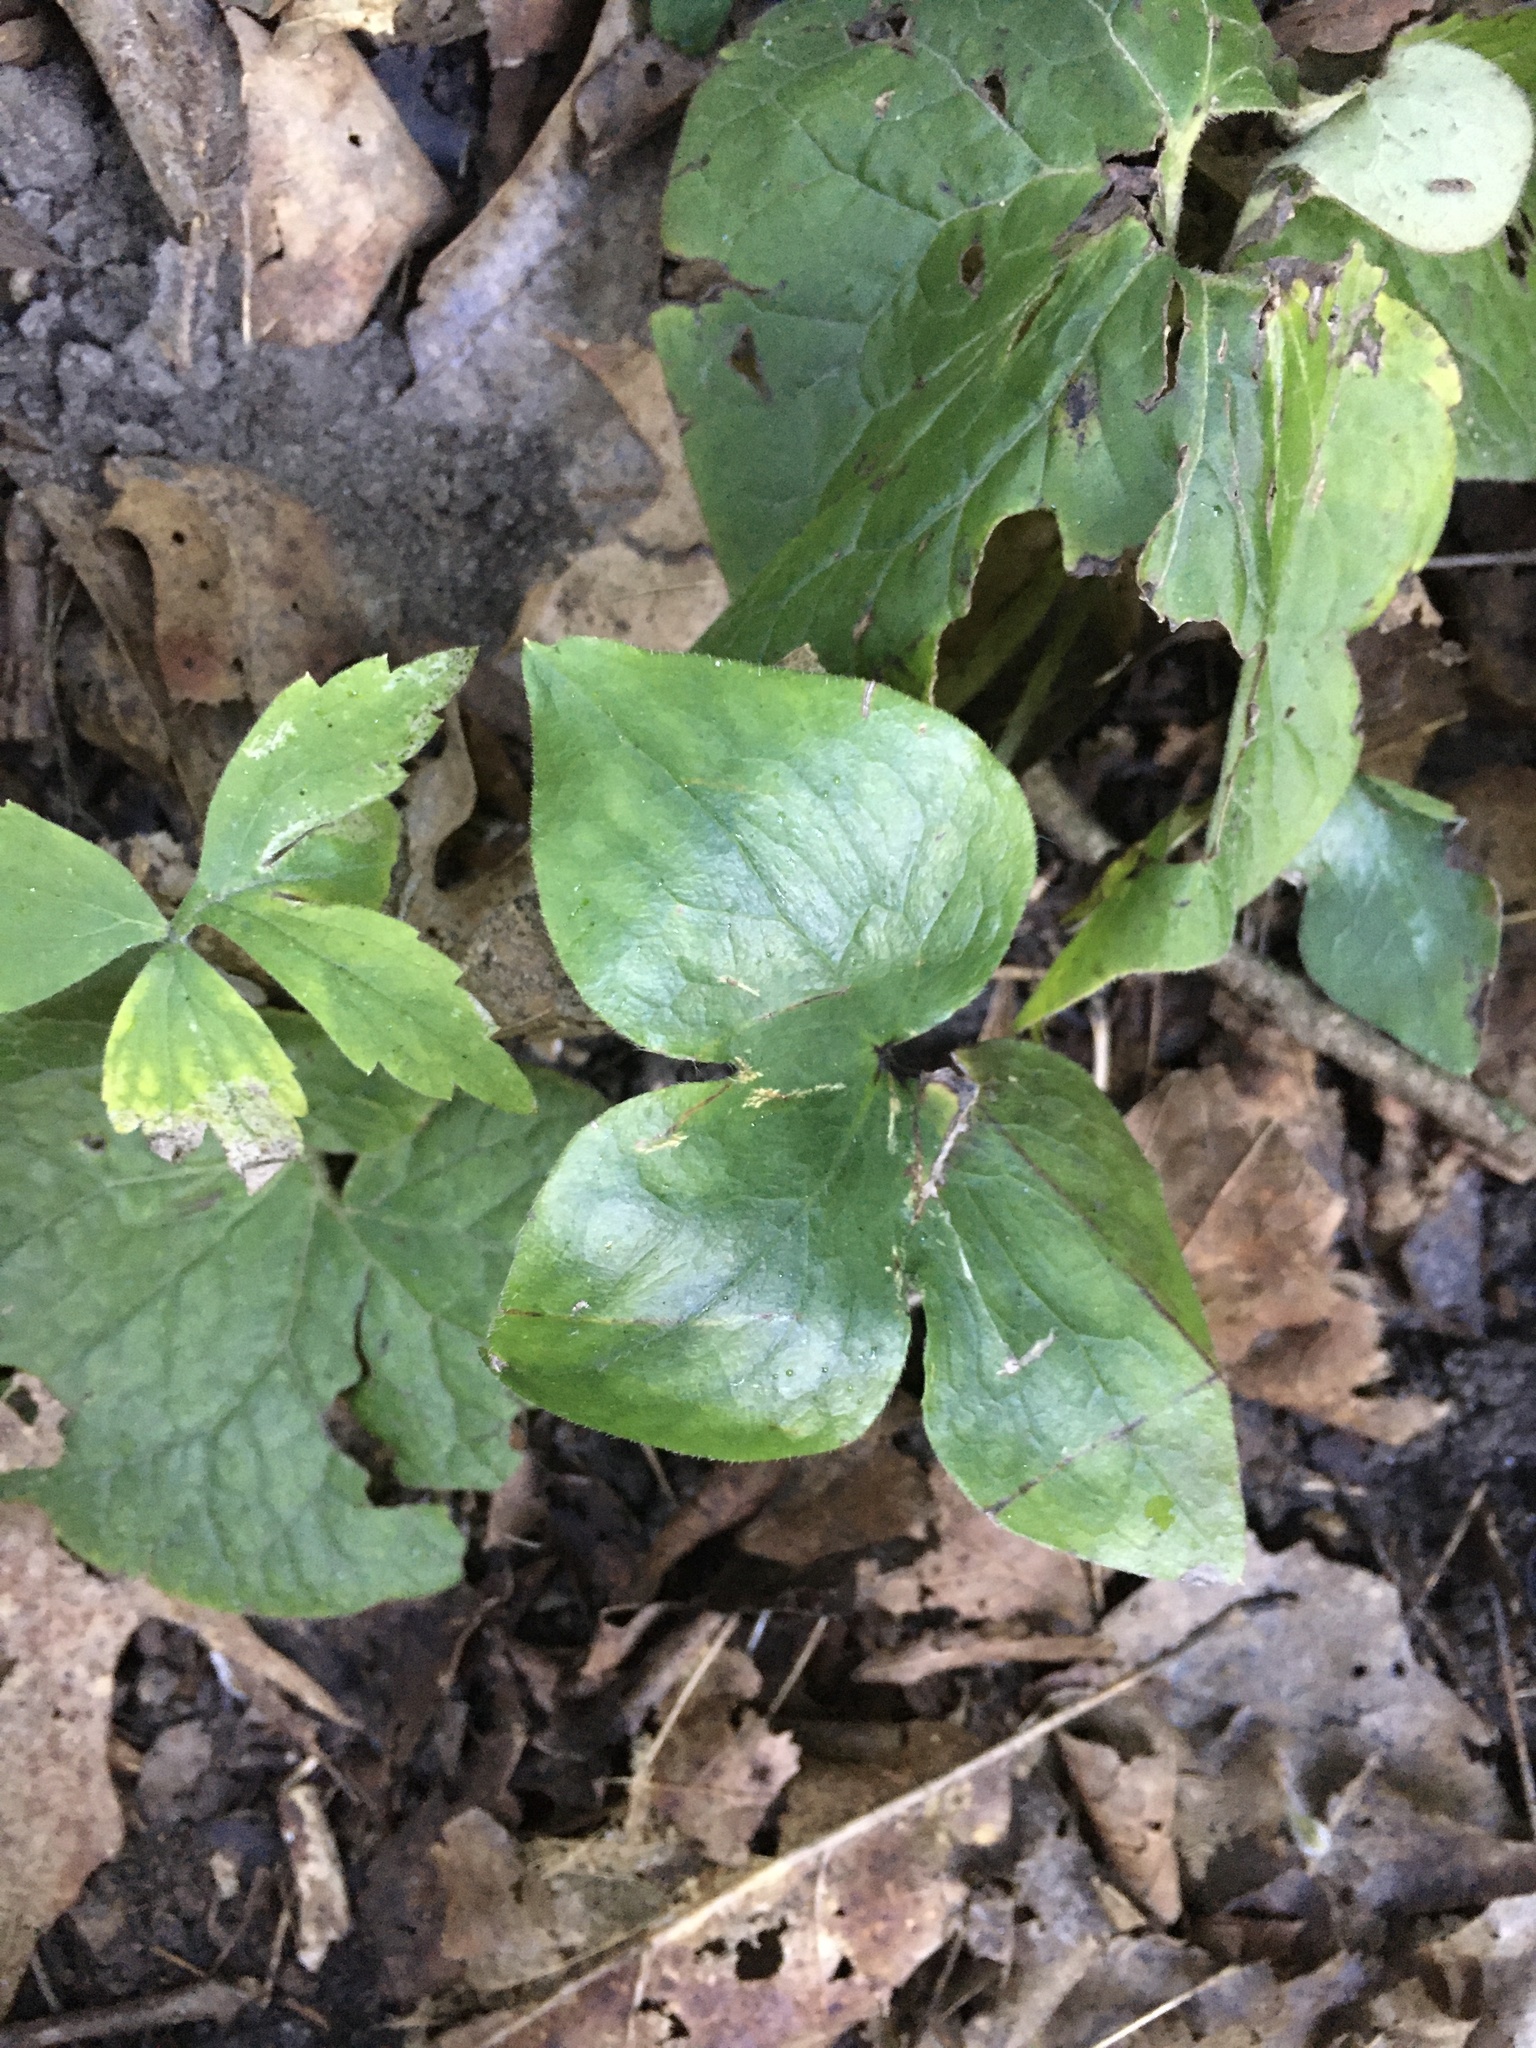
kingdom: Plantae
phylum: Tracheophyta
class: Magnoliopsida
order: Ranunculales
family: Ranunculaceae
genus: Hepatica
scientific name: Hepatica acutiloba
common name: Sharp-lobed hepatica
